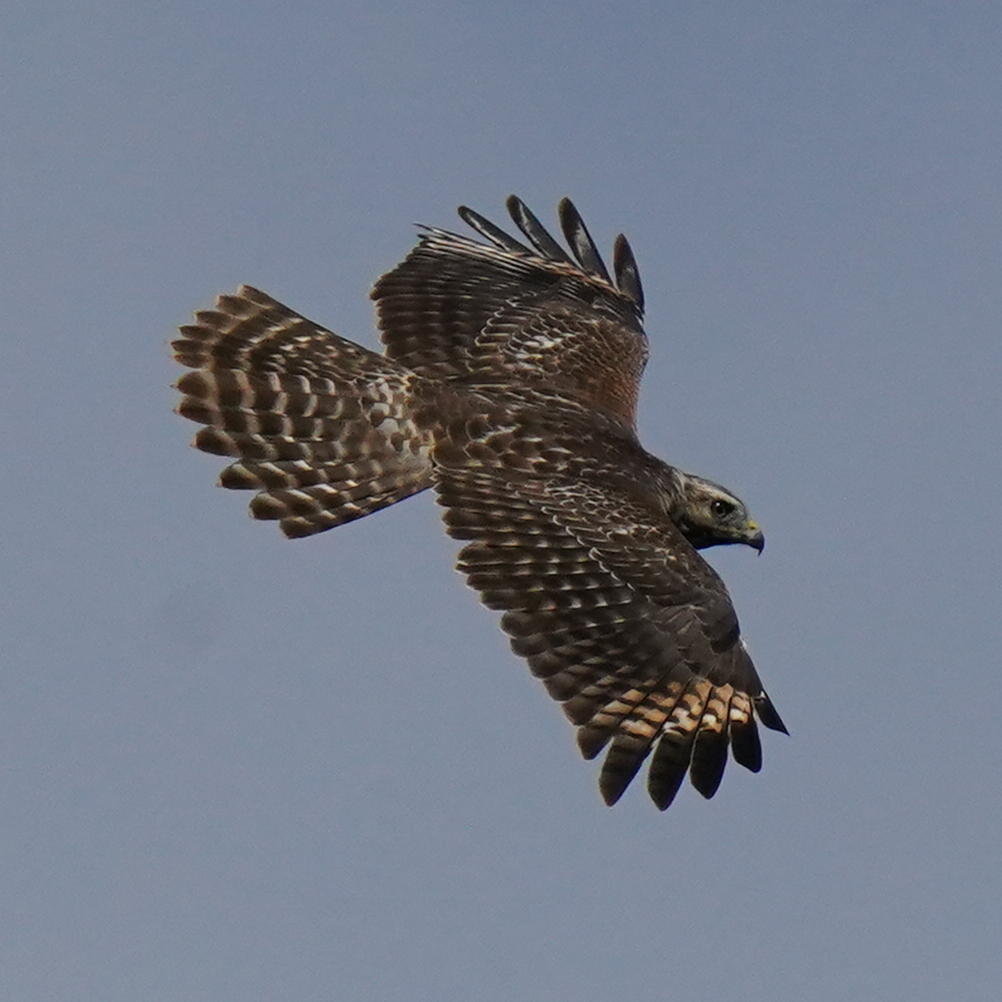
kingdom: Animalia
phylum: Chordata
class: Aves
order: Accipitriformes
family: Accipitridae
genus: Buteo
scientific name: Buteo lineatus
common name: Red-shouldered hawk
